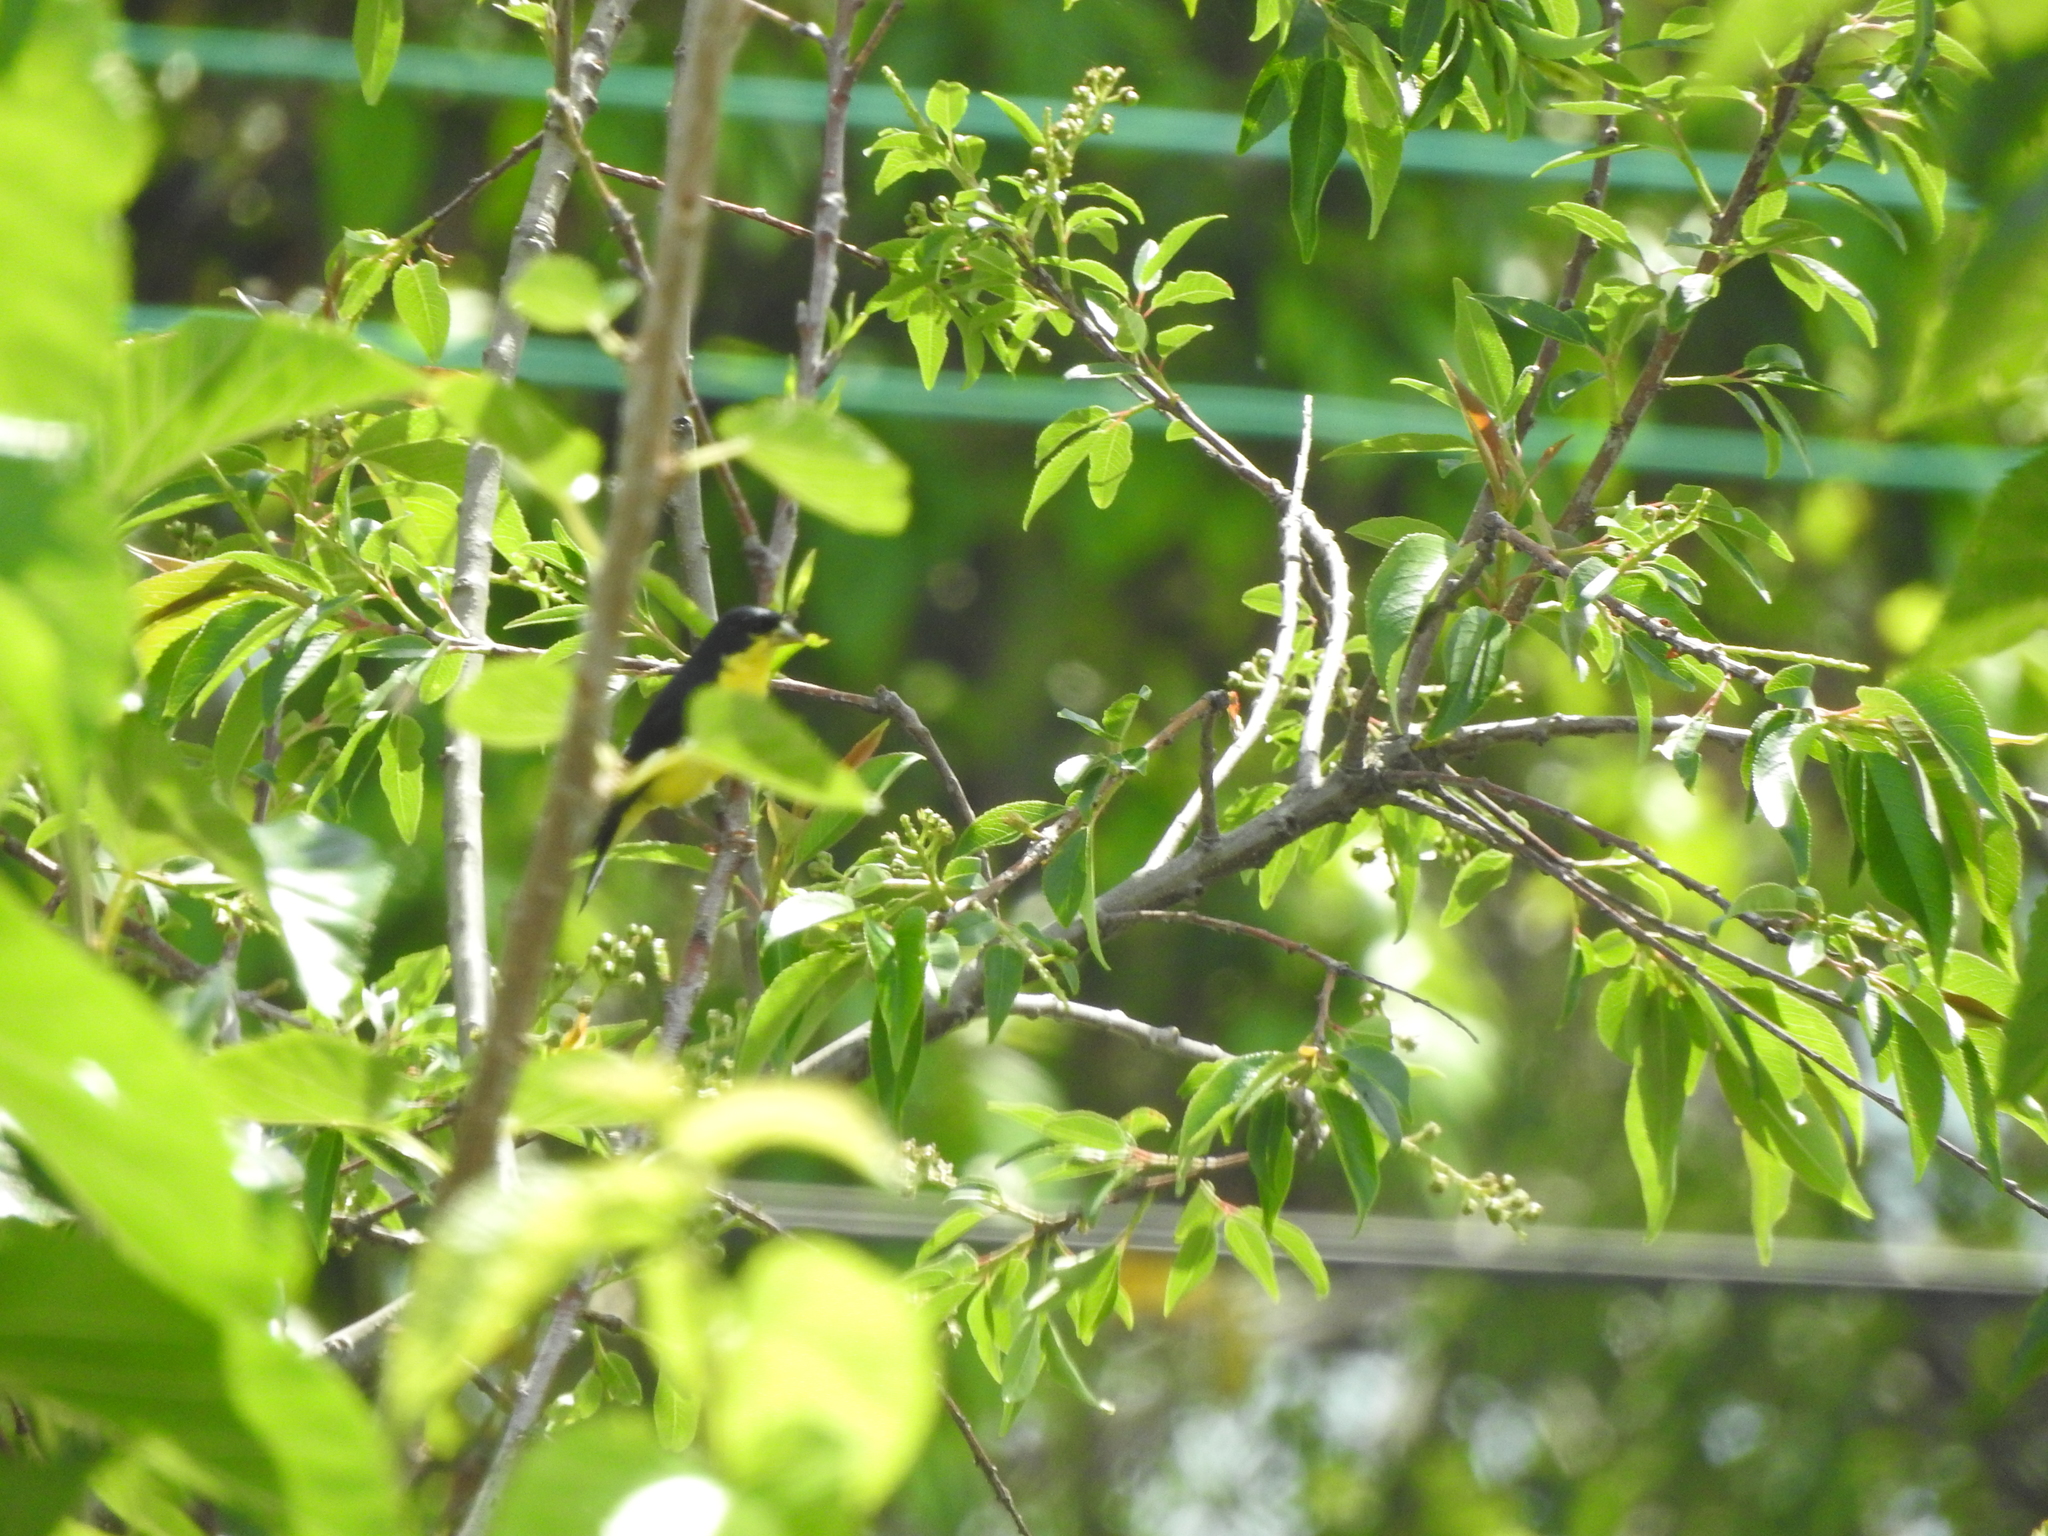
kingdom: Animalia
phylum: Chordata
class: Aves
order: Passeriformes
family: Fringillidae
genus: Spinus
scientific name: Spinus psaltria
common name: Lesser goldfinch
